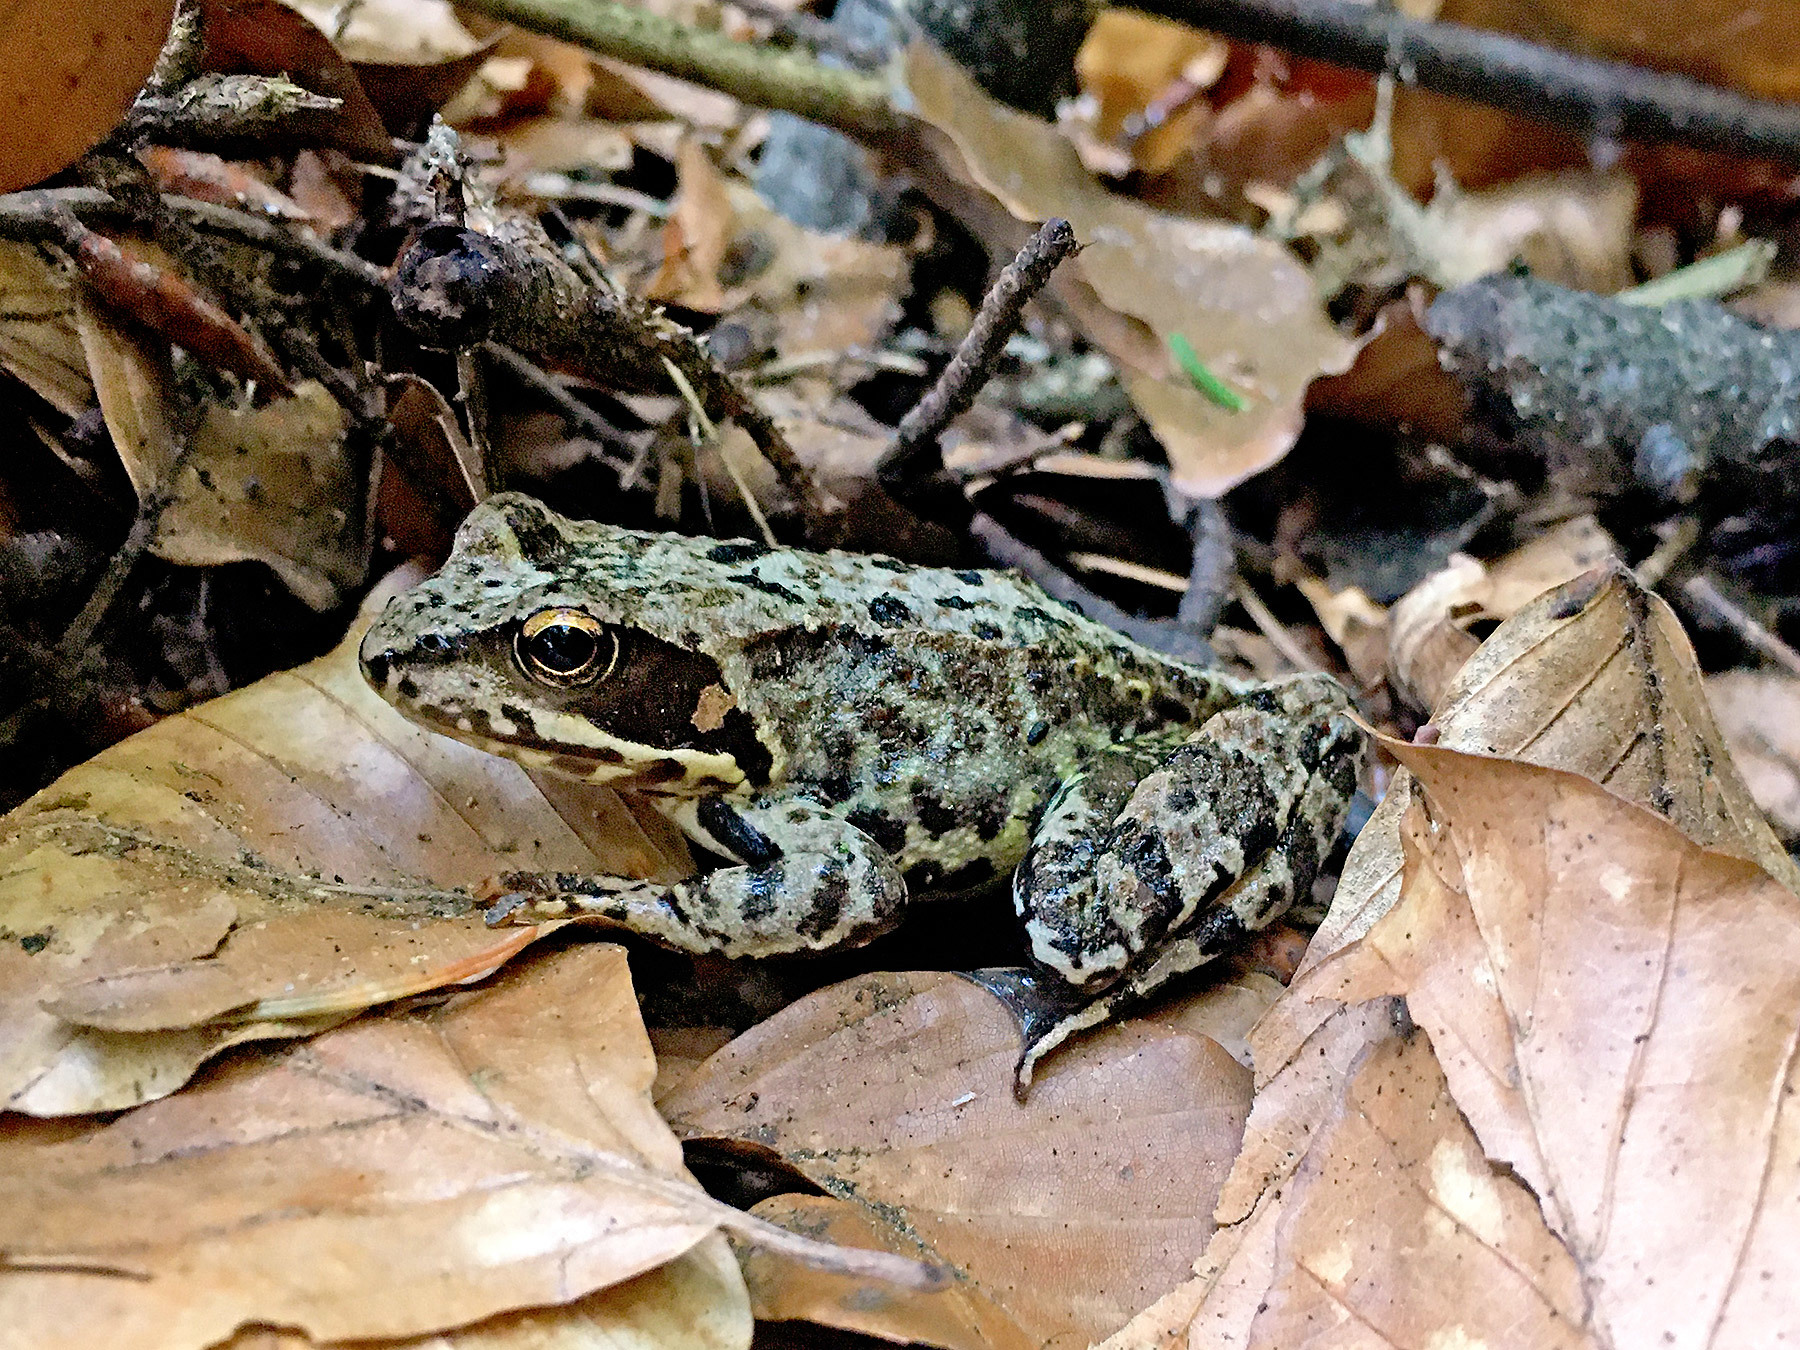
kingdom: Animalia
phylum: Chordata
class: Amphibia
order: Anura
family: Ranidae
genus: Rana
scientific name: Rana temporaria
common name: Common frog
